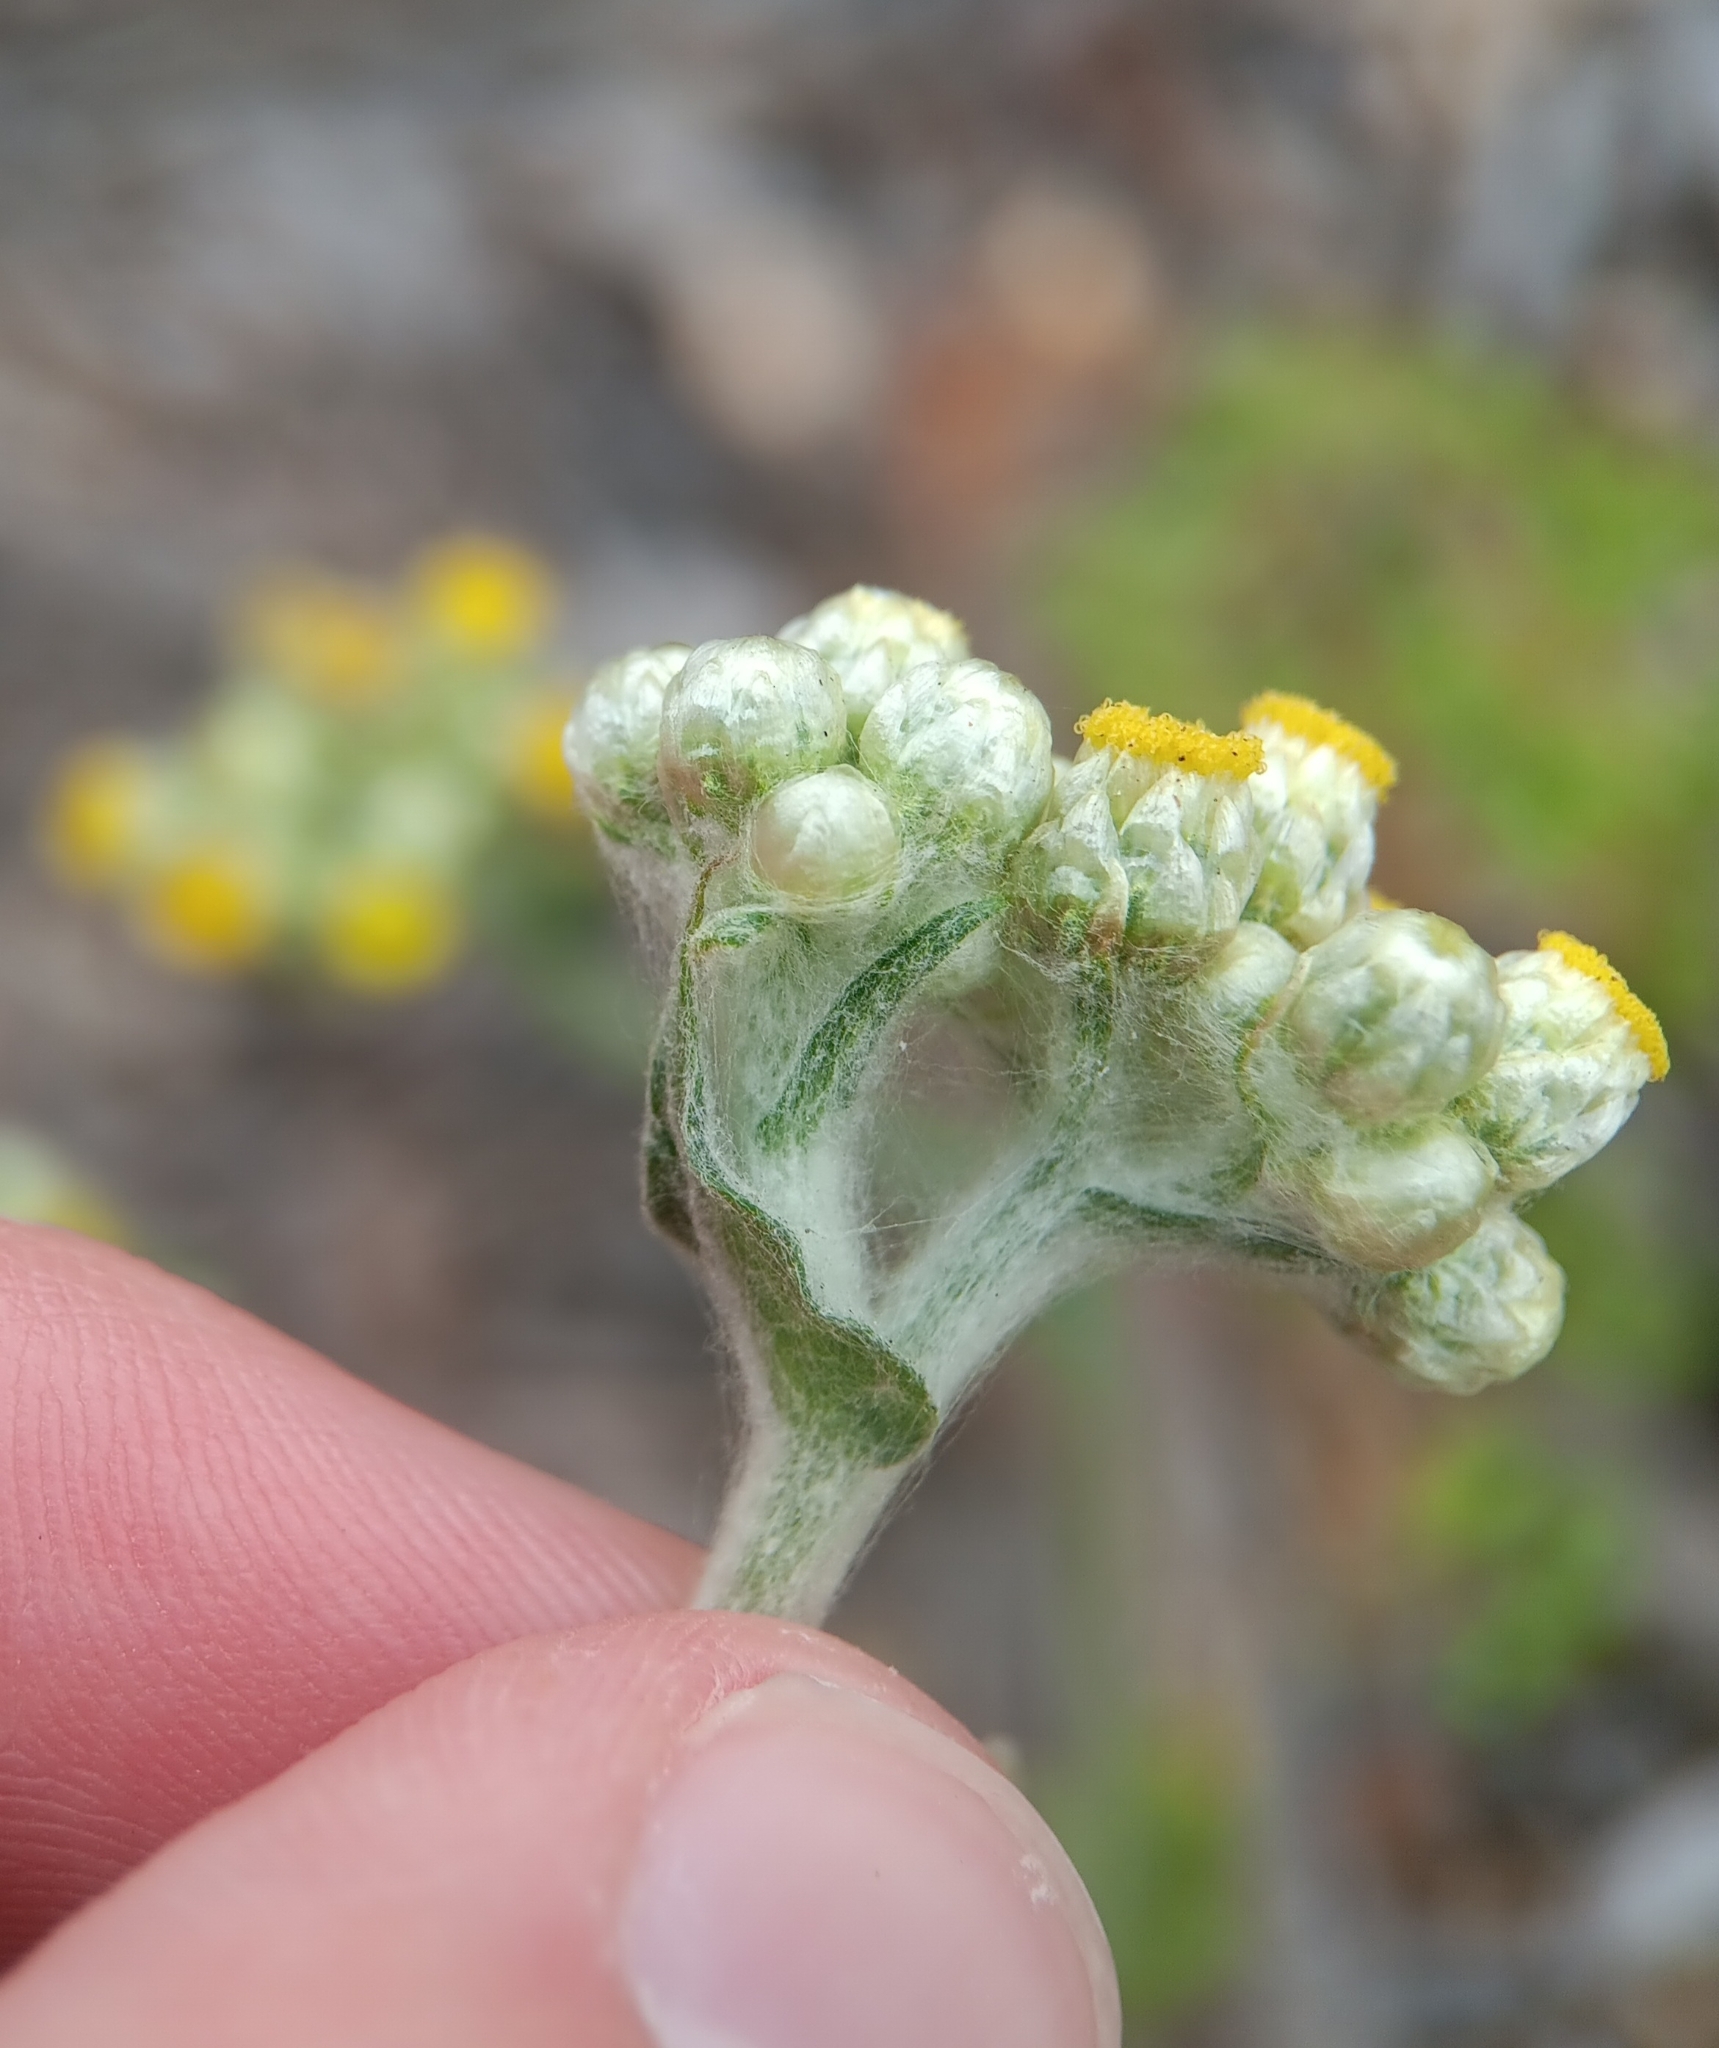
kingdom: Plantae
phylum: Tracheophyta
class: Magnoliopsida
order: Asterales
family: Asteraceae
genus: Pseudognaphalium
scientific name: Pseudognaphalium stramineum
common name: Cotton-batting-plant
